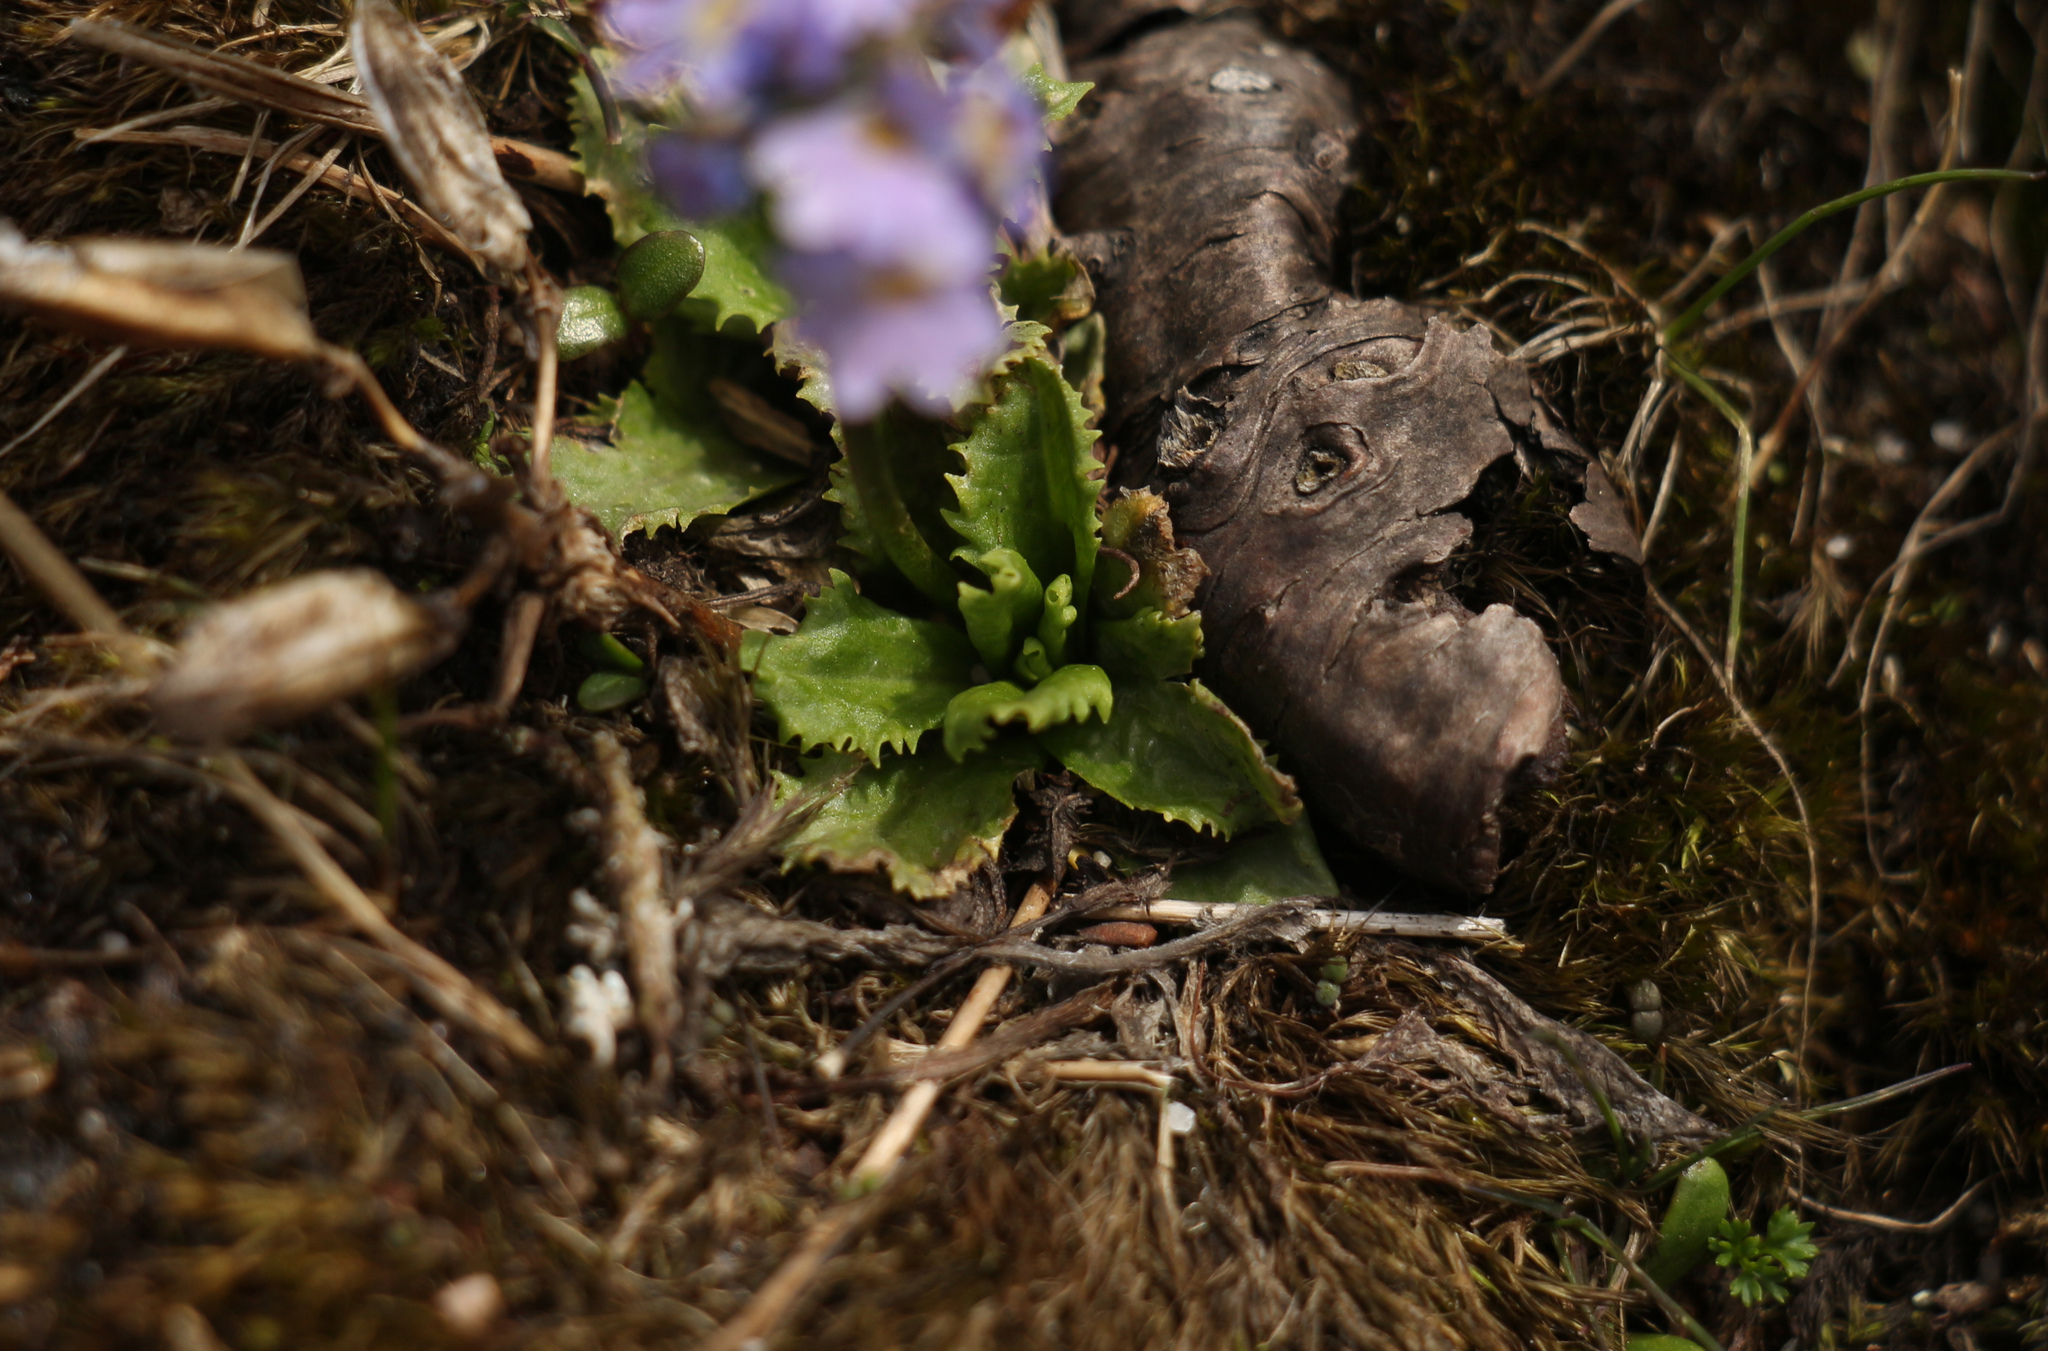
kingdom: Plantae
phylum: Tracheophyta
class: Magnoliopsida
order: Ericales
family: Primulaceae
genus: Primula
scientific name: Primula glabra
